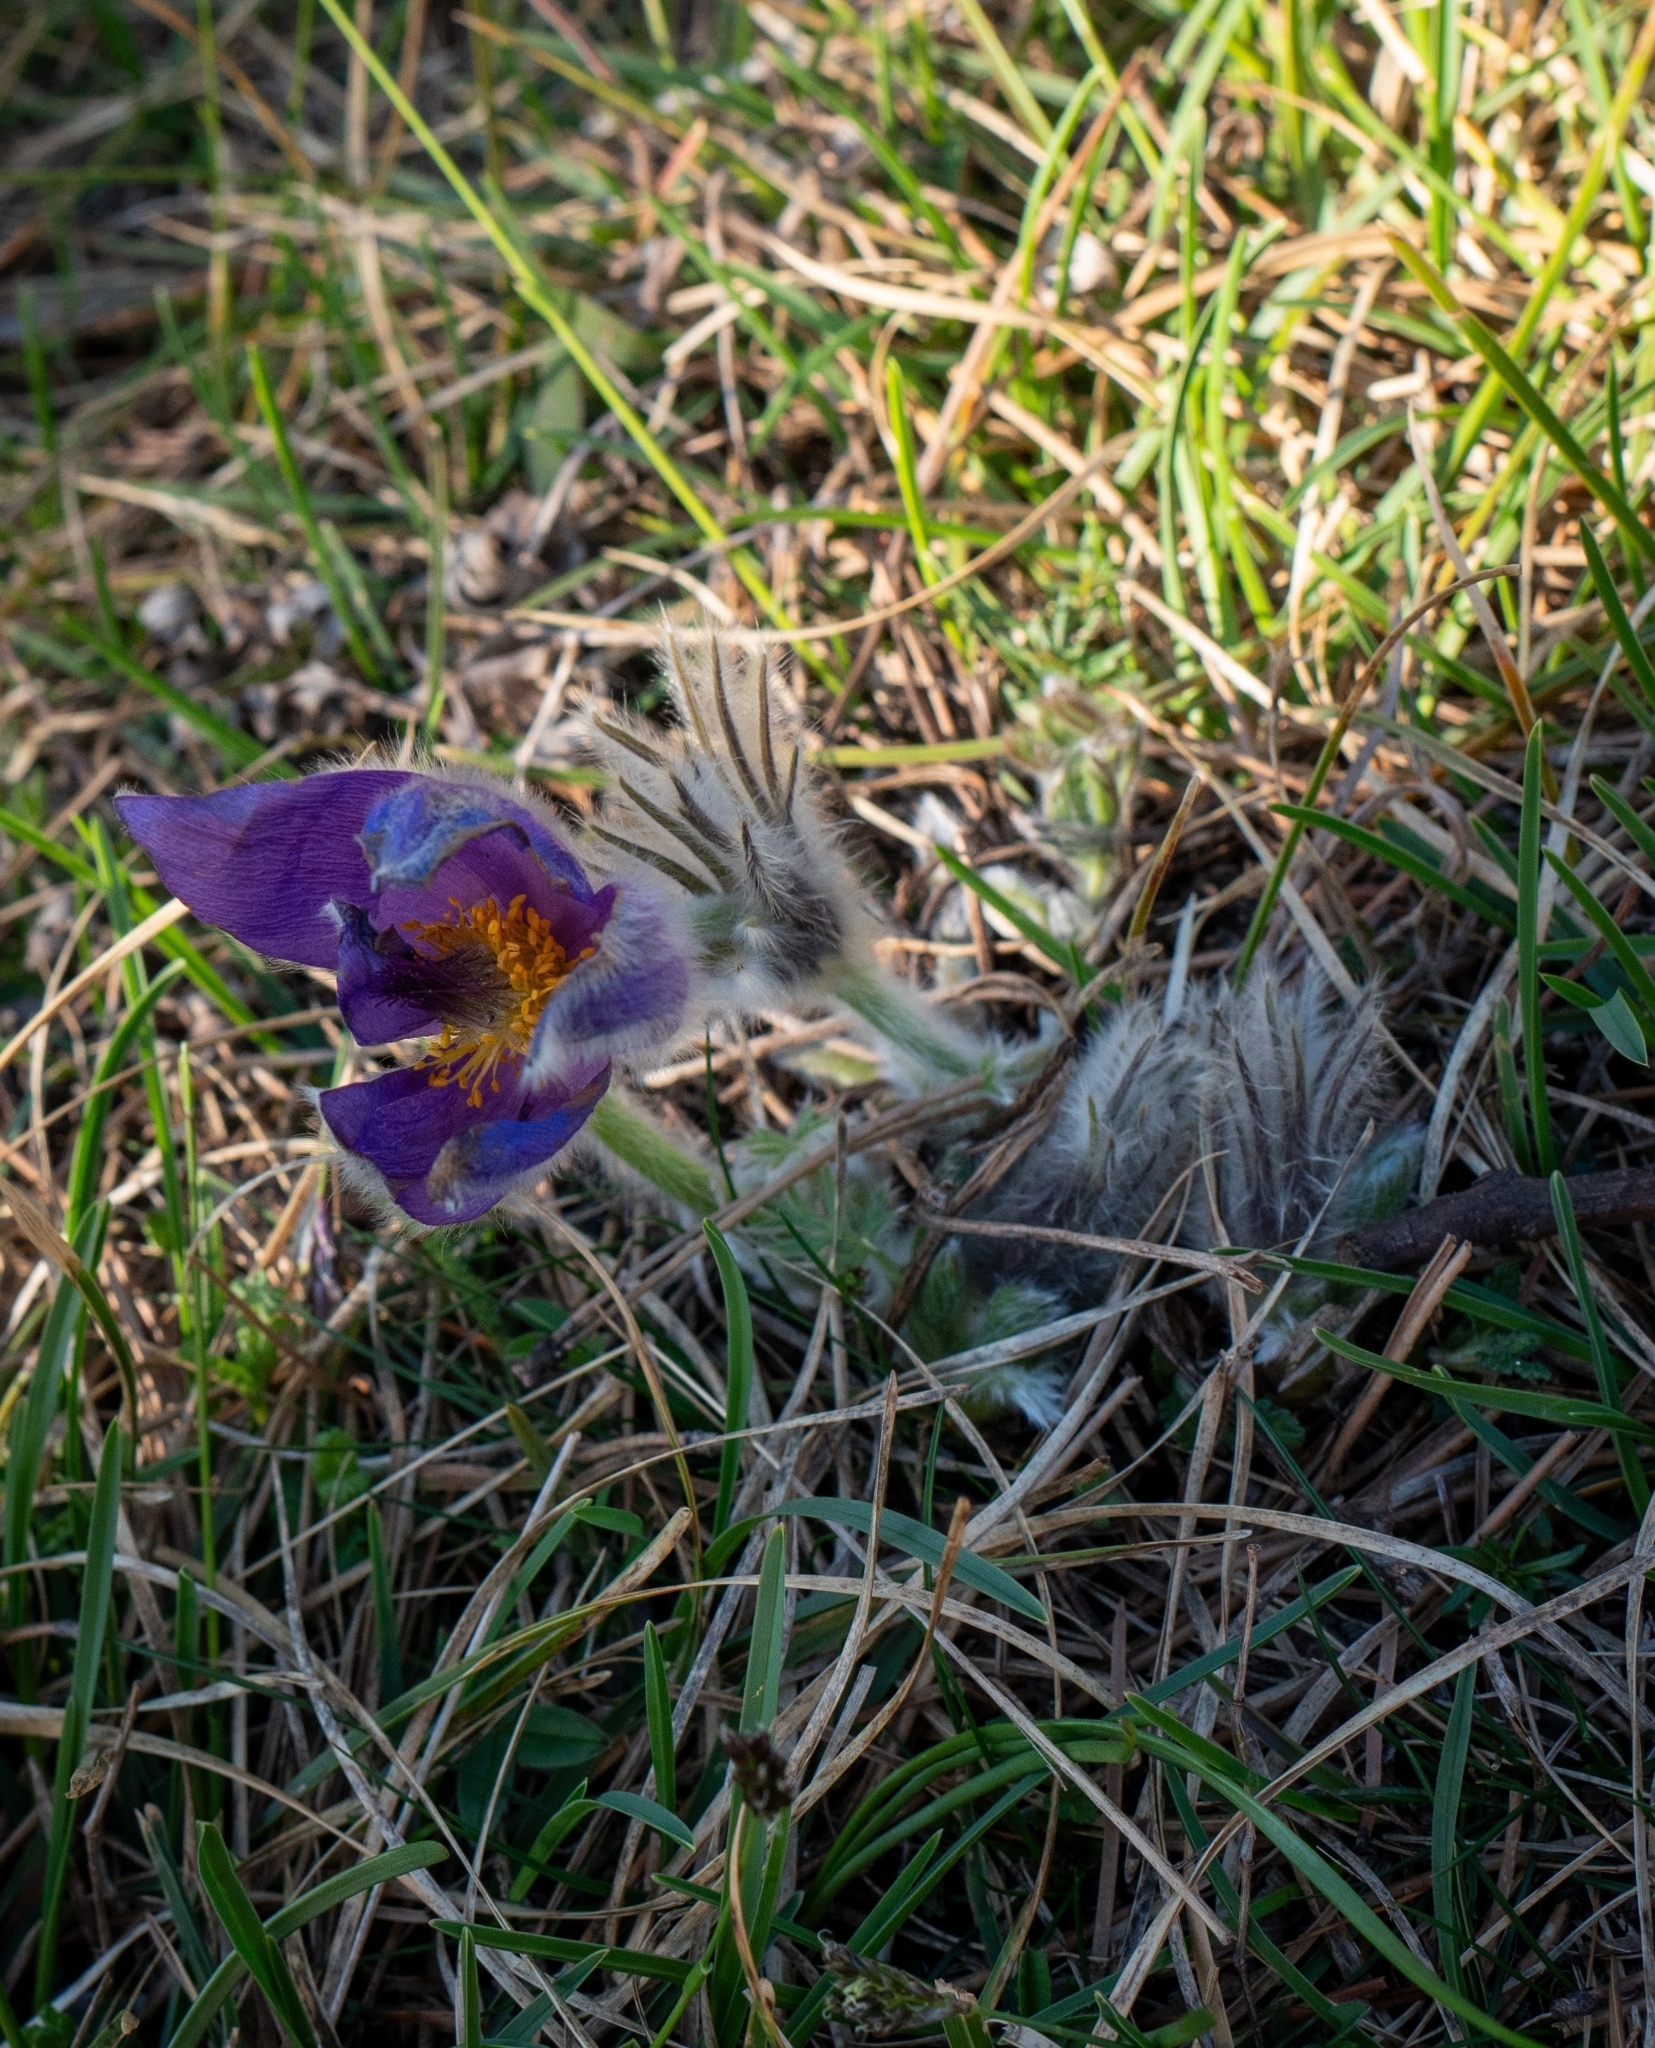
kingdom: Plantae
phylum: Tracheophyta
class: Magnoliopsida
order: Ranunculales
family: Ranunculaceae
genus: Pulsatilla
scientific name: Pulsatilla grandis
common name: Greater pasque flower
